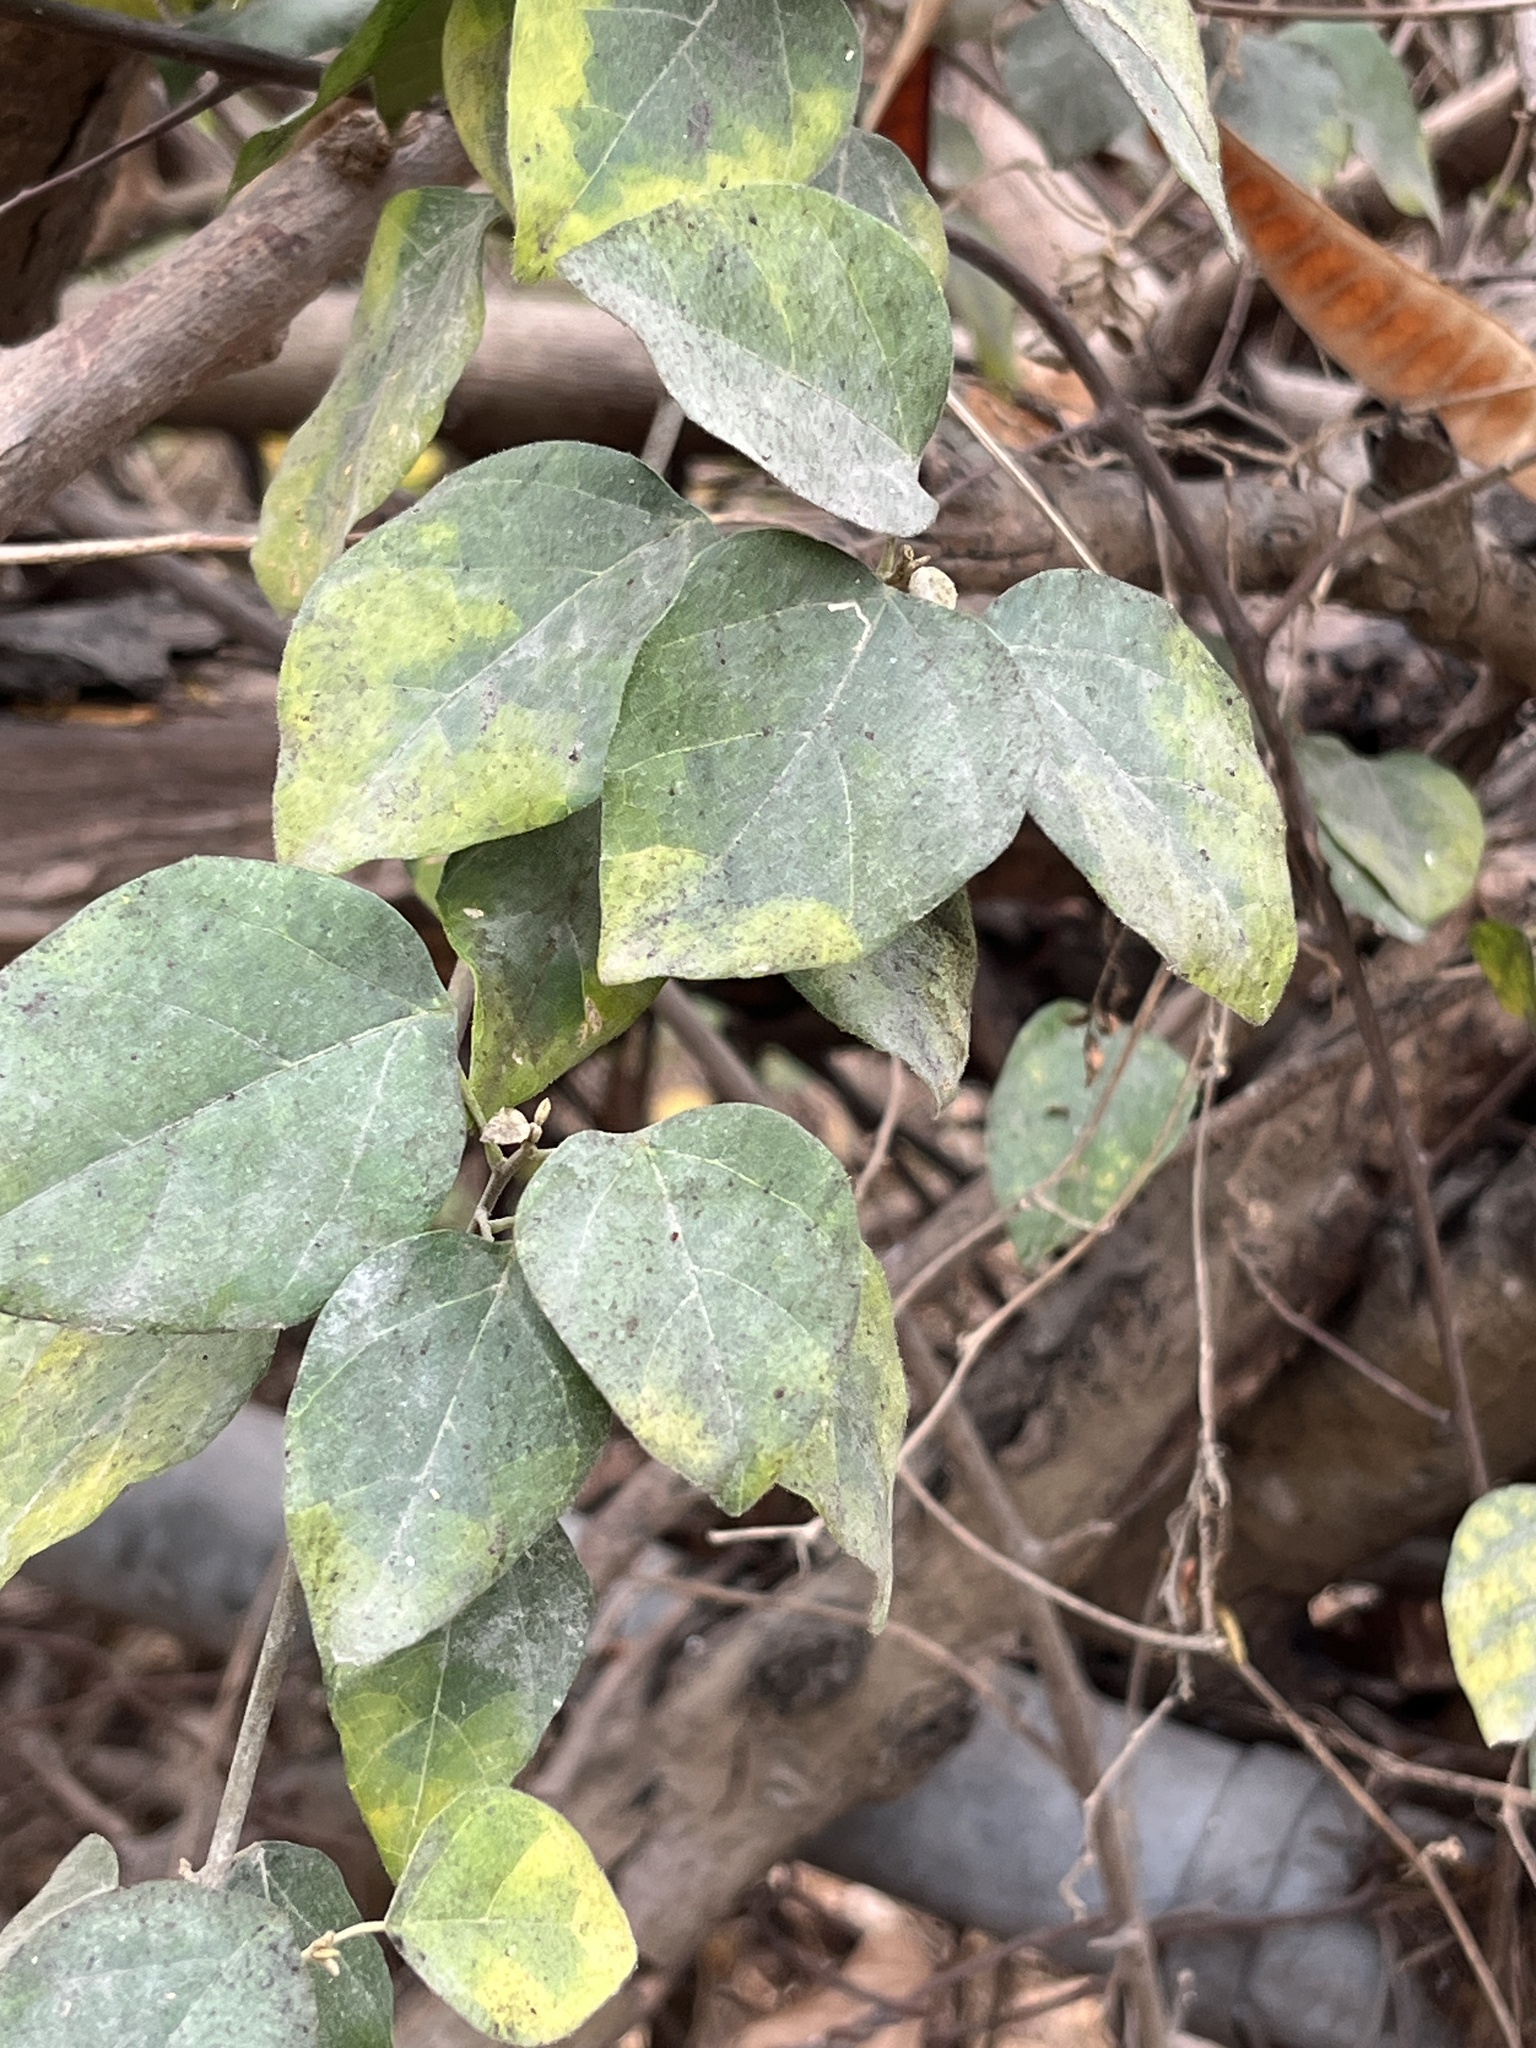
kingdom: Plantae
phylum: Tracheophyta
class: Magnoliopsida
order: Malpighiales
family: Euphorbiaceae
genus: Mallotus
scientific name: Mallotus repandus
